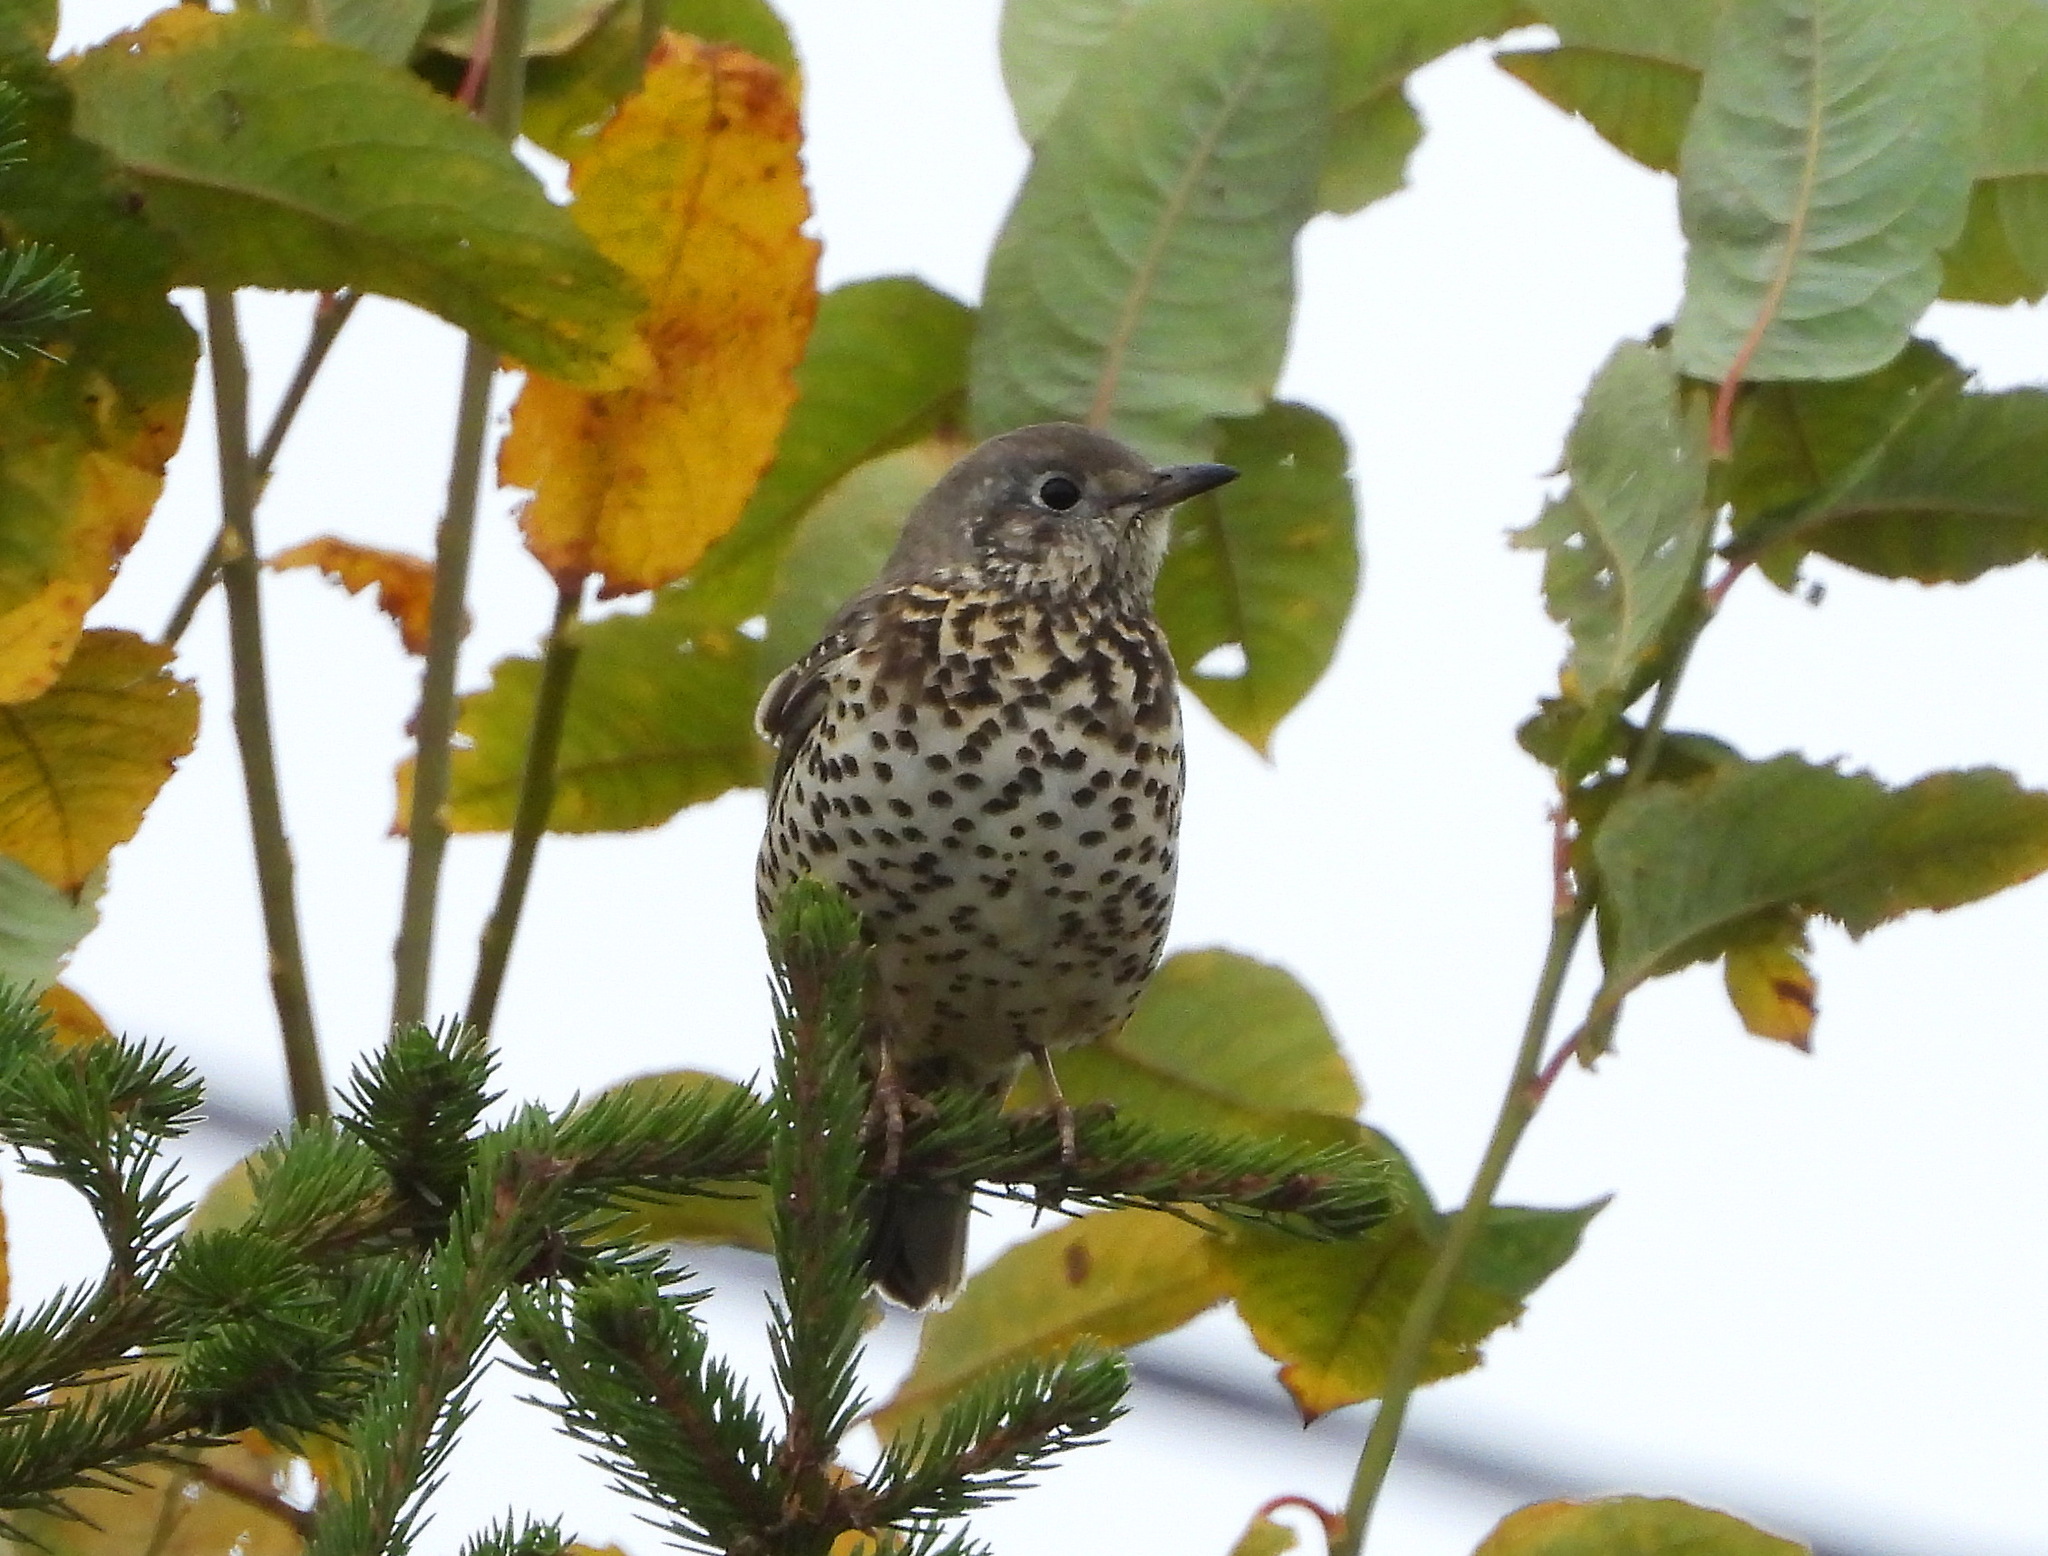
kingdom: Animalia
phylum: Chordata
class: Aves
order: Passeriformes
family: Turdidae
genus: Turdus
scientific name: Turdus viscivorus
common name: Mistle thrush
